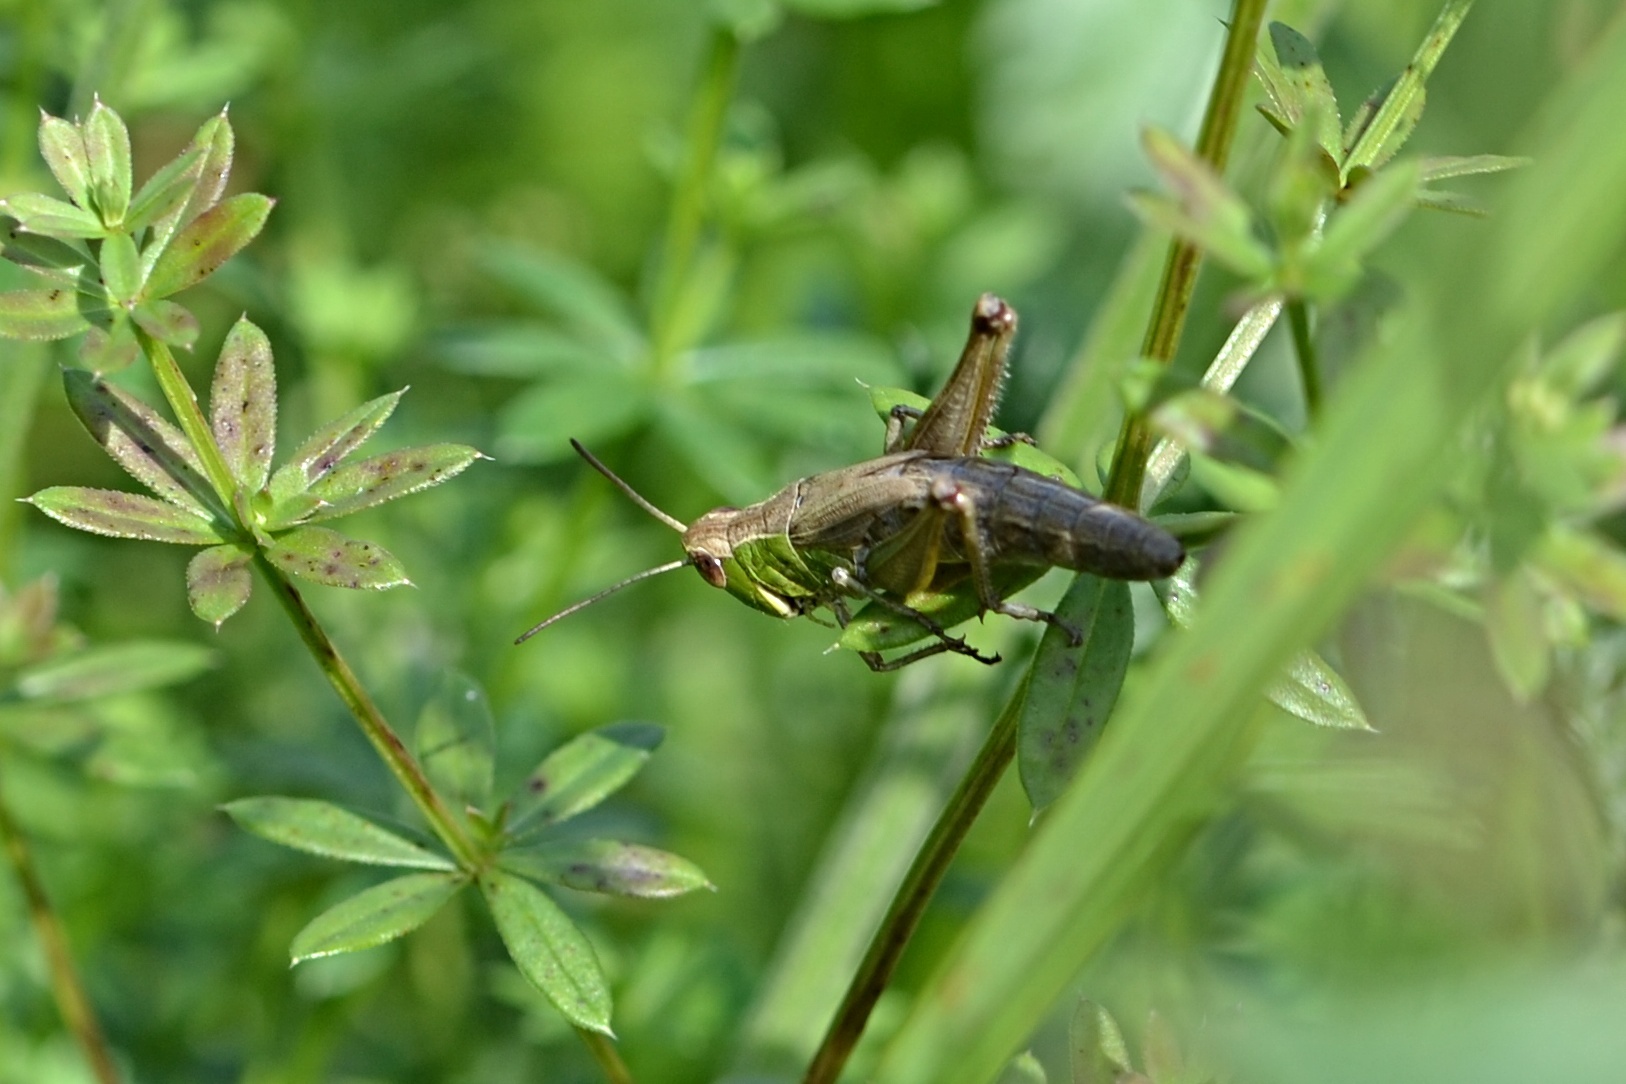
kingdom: Animalia
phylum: Arthropoda
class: Insecta
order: Orthoptera
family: Acrididae
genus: Pseudochorthippus
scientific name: Pseudochorthippus parallelus
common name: Meadow grasshopper
